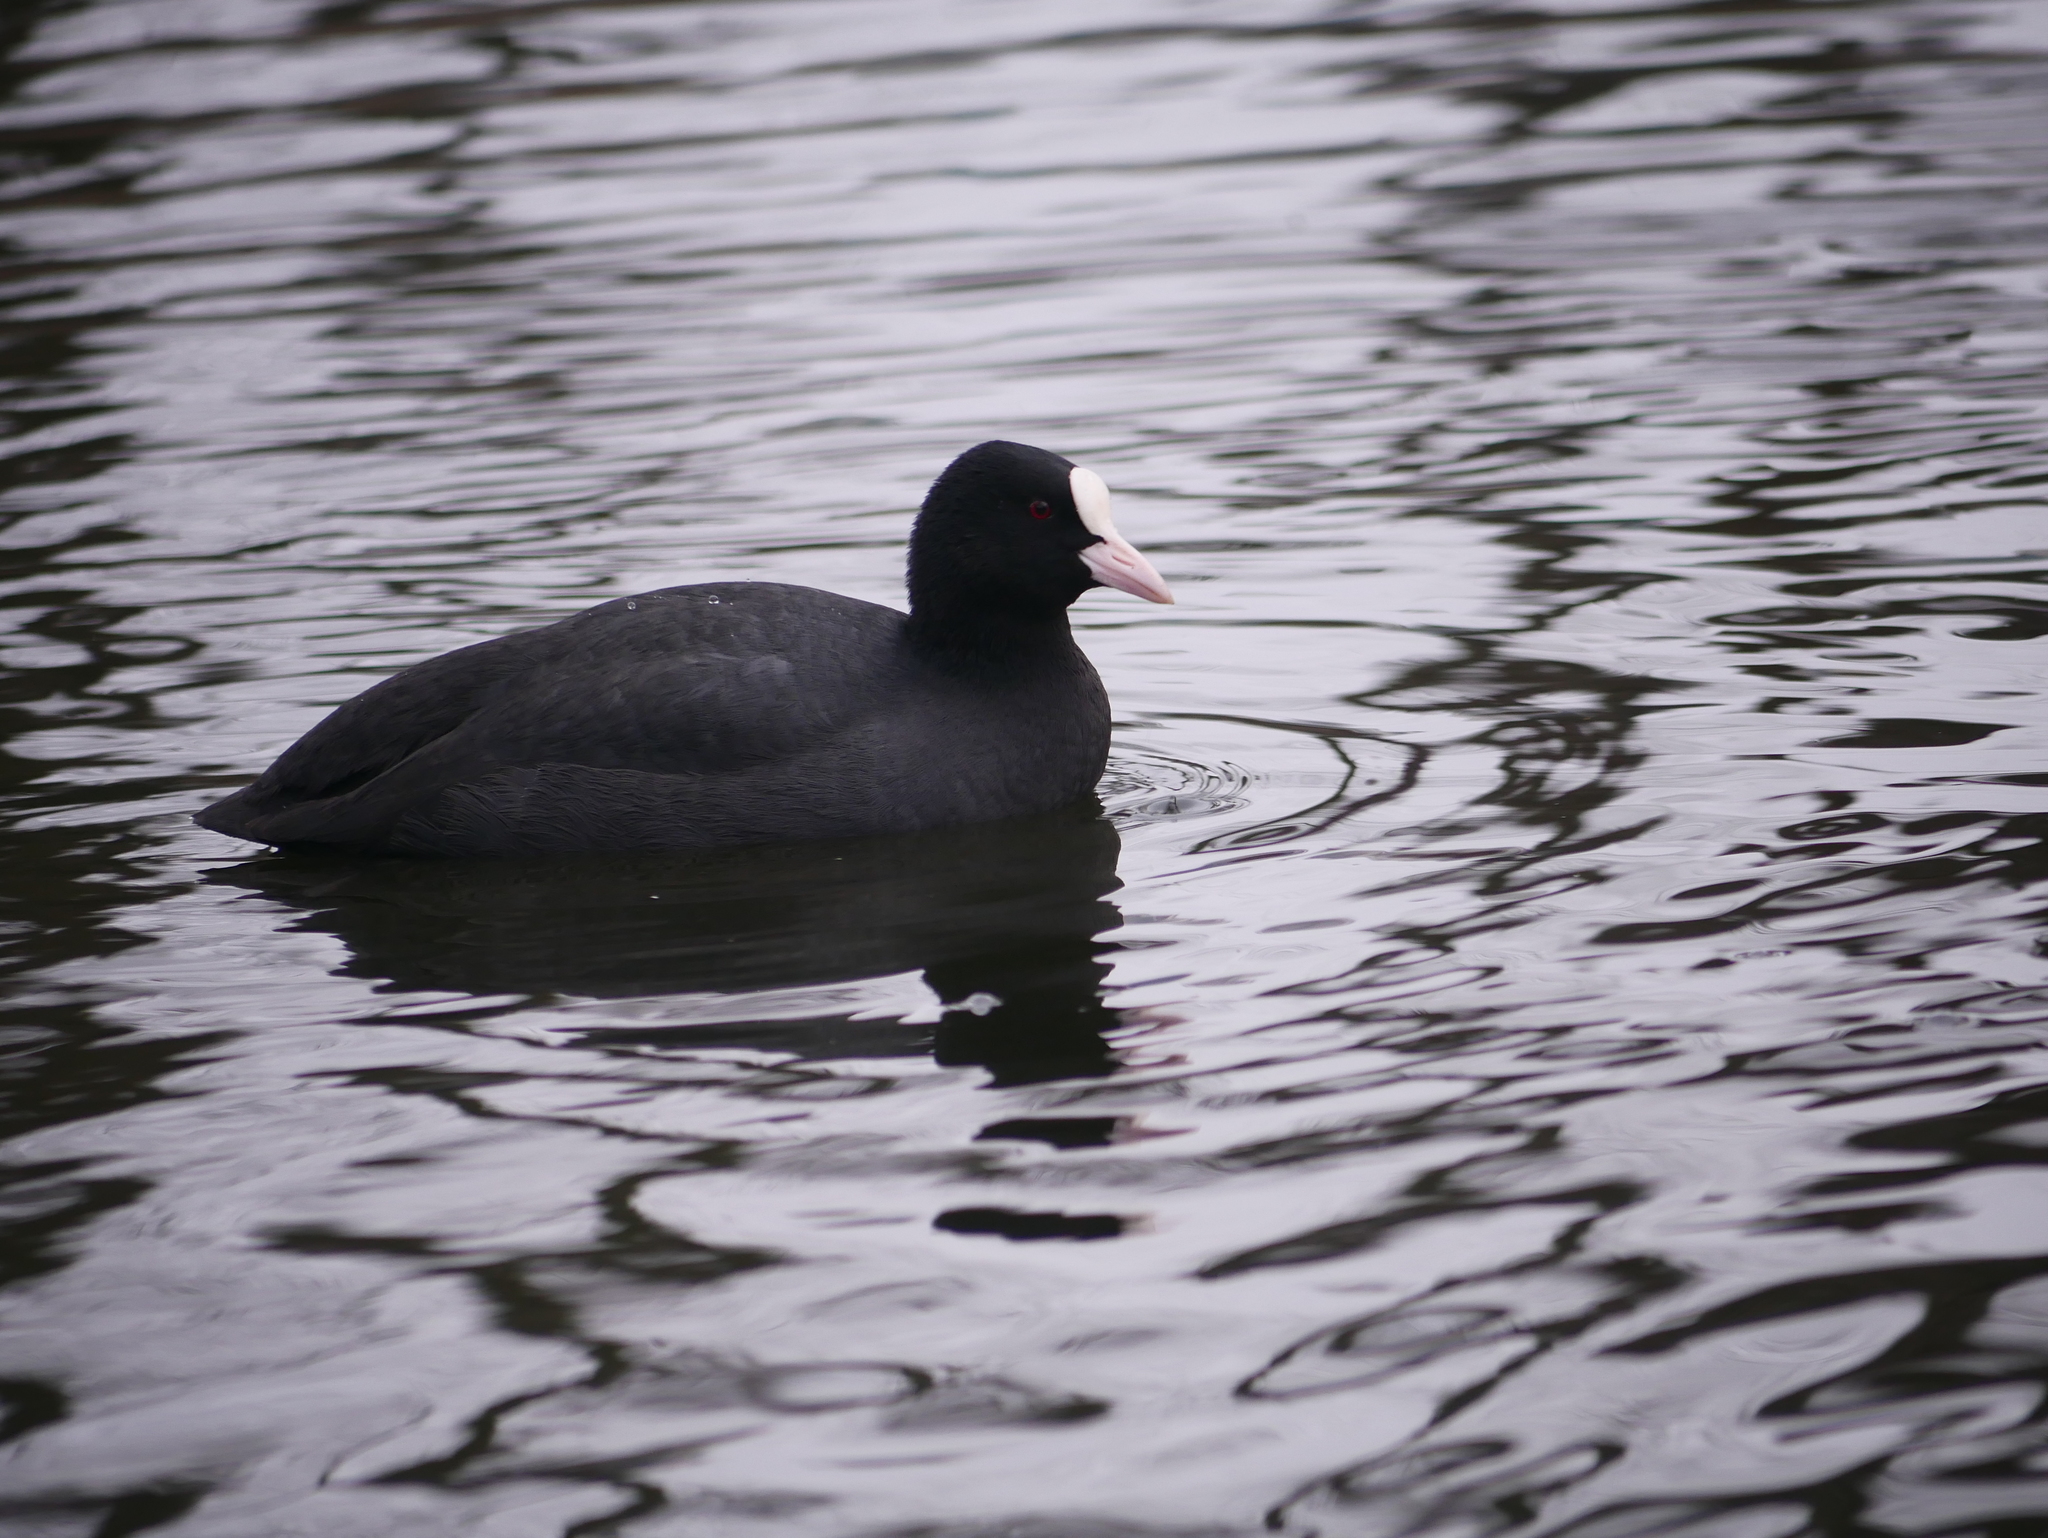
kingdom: Animalia
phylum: Chordata
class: Aves
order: Gruiformes
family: Rallidae
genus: Fulica
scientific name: Fulica atra
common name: Eurasian coot
